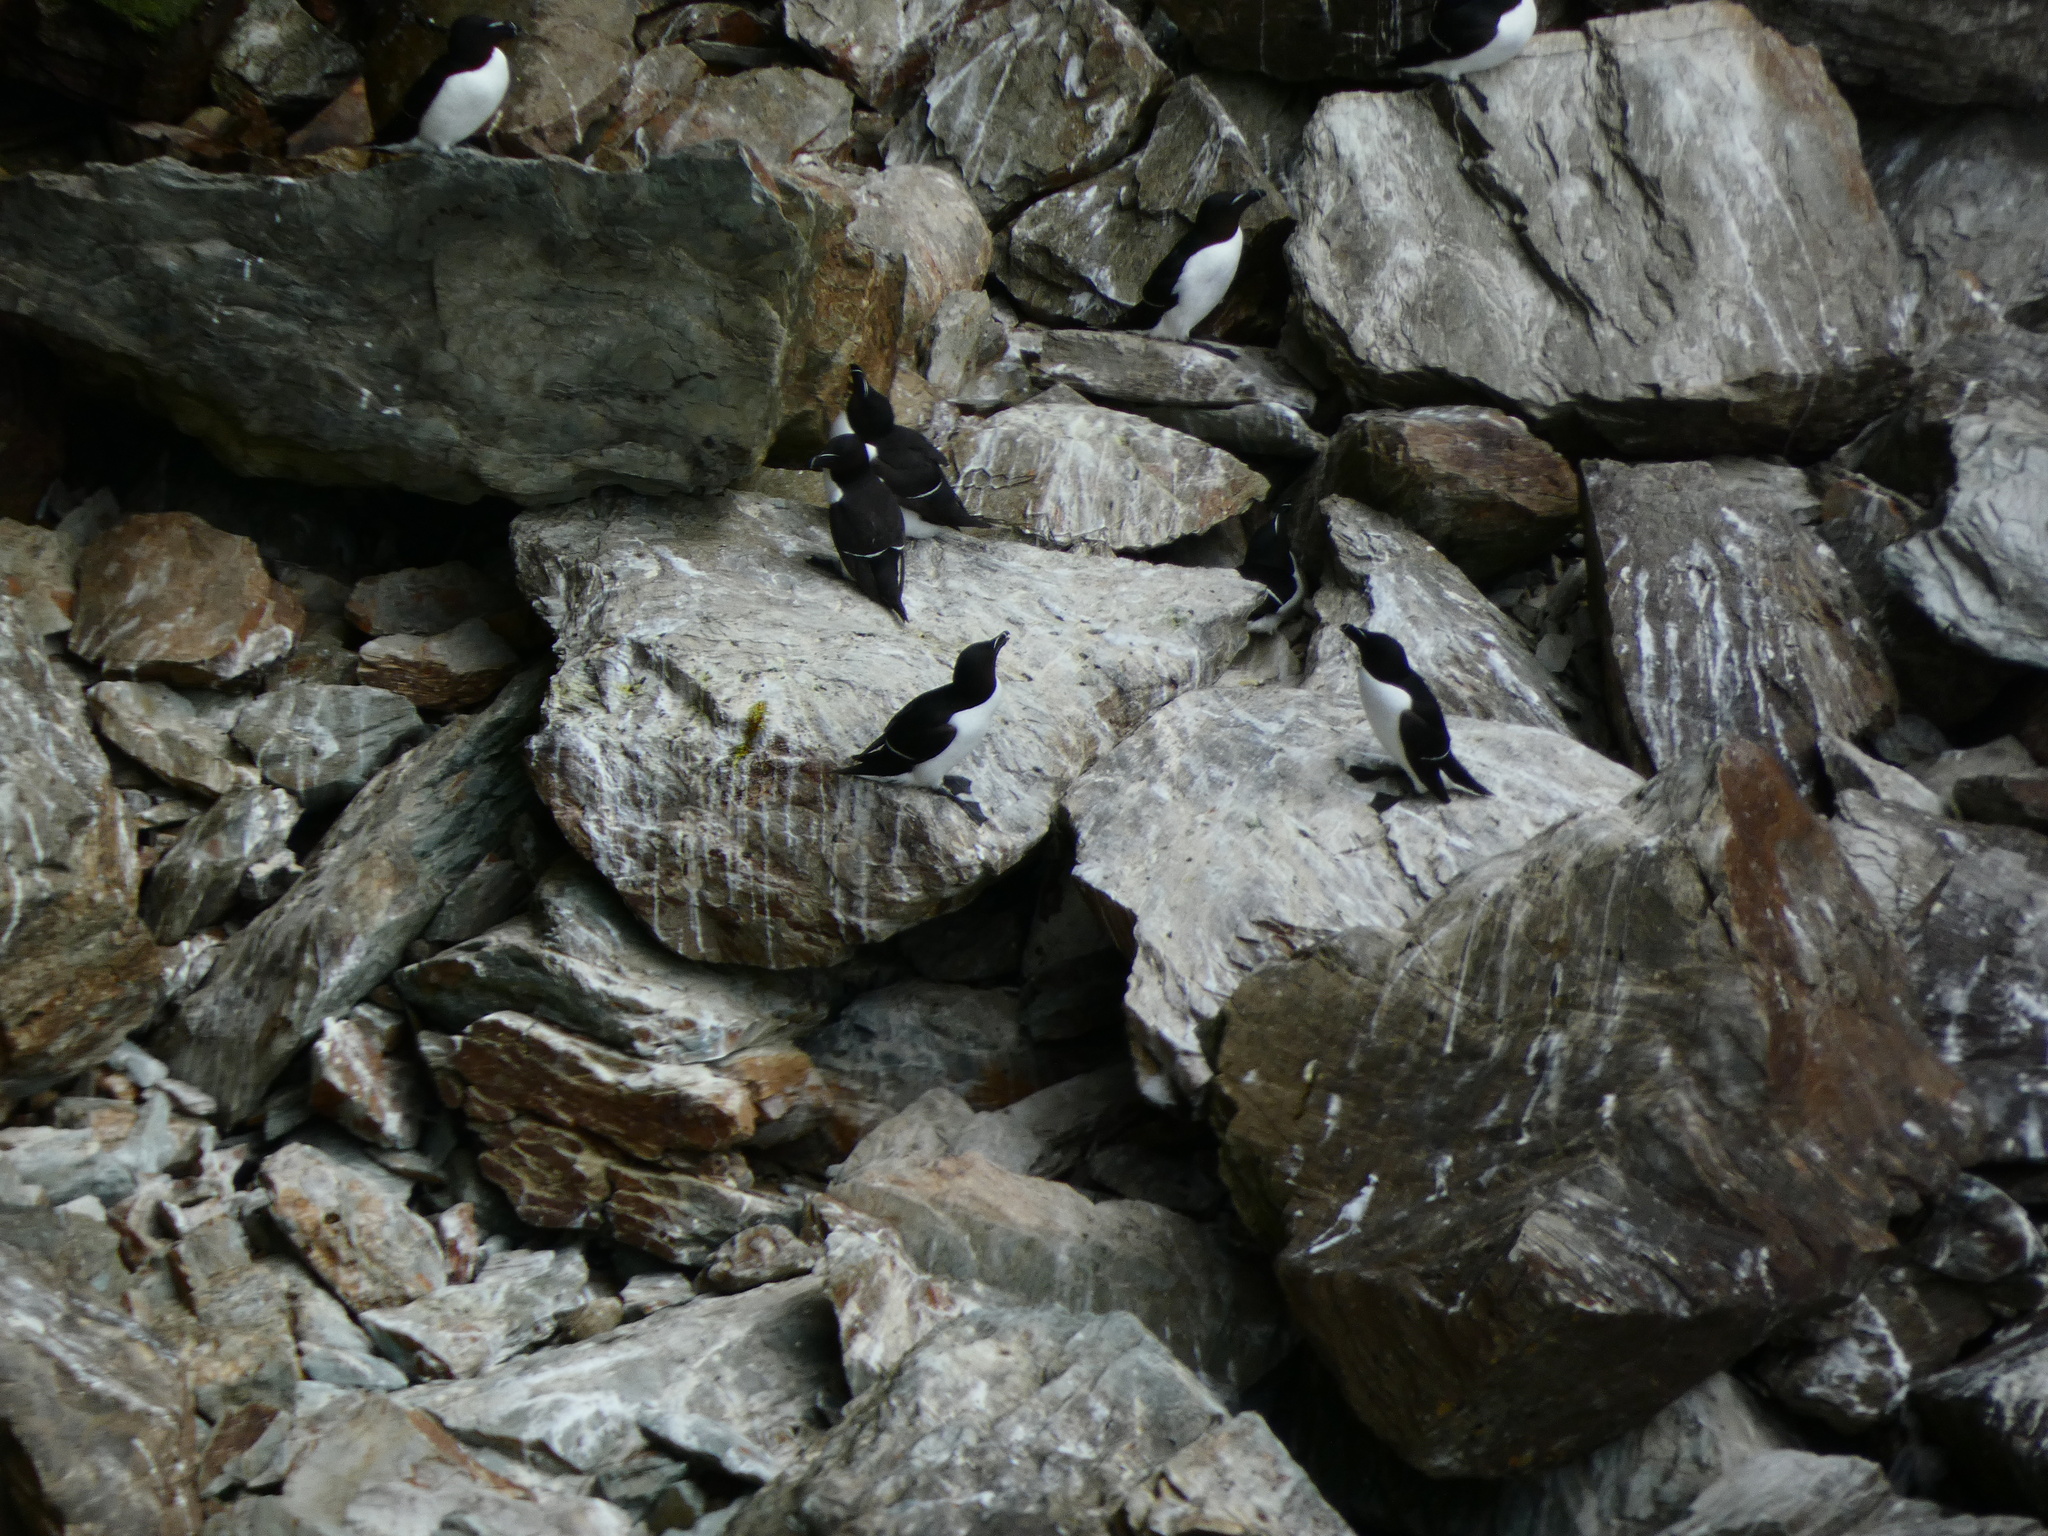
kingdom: Animalia
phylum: Chordata
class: Aves
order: Charadriiformes
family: Alcidae
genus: Alca
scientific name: Alca torda
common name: Razorbill
